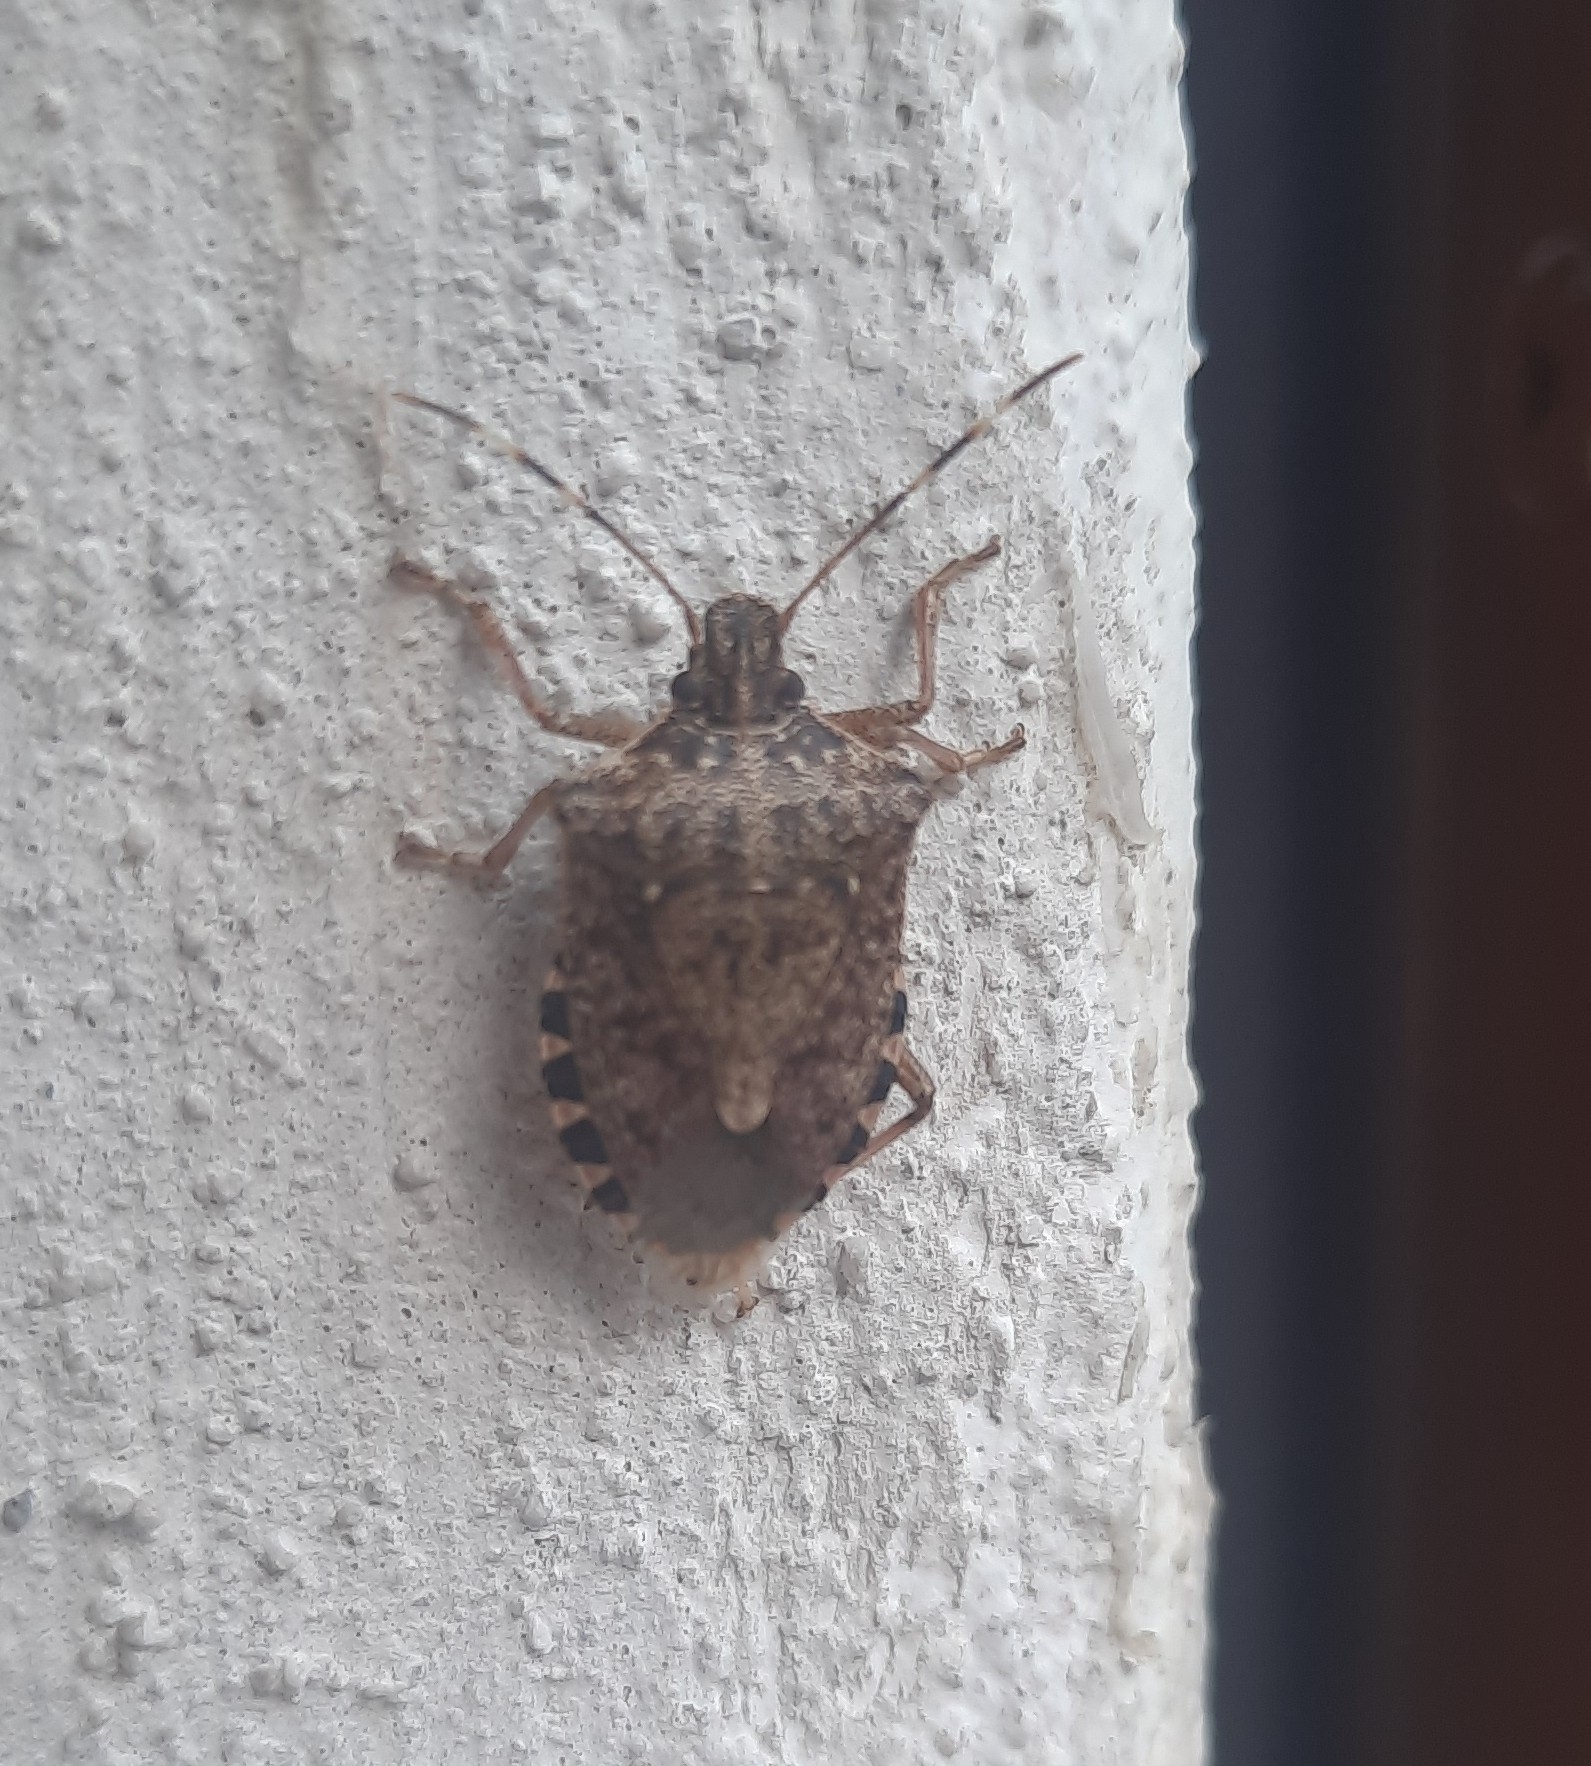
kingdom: Animalia
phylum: Arthropoda
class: Insecta
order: Hemiptera
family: Pentatomidae
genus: Halyomorpha
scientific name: Halyomorpha halys
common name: Brown marmorated stink bug
